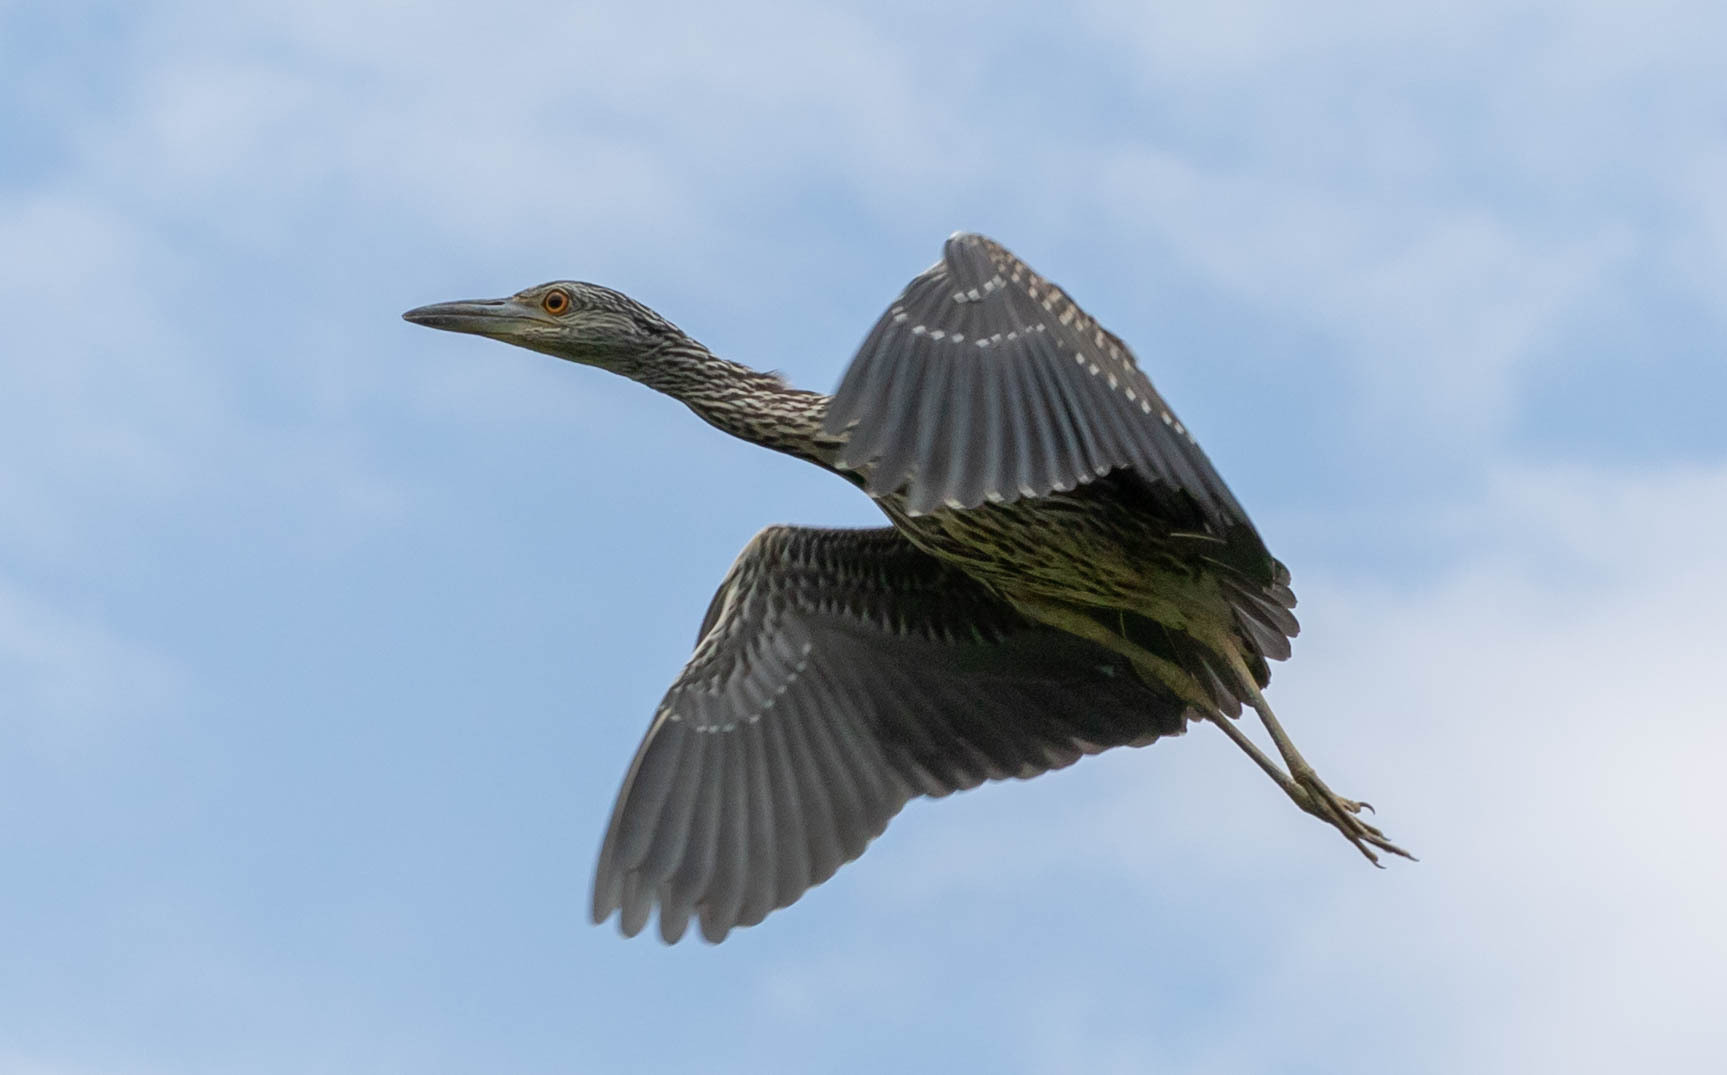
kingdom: Animalia
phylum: Chordata
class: Aves
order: Pelecaniformes
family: Ardeidae
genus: Nyctanassa
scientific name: Nyctanassa violacea
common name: Yellow-crowned night heron
